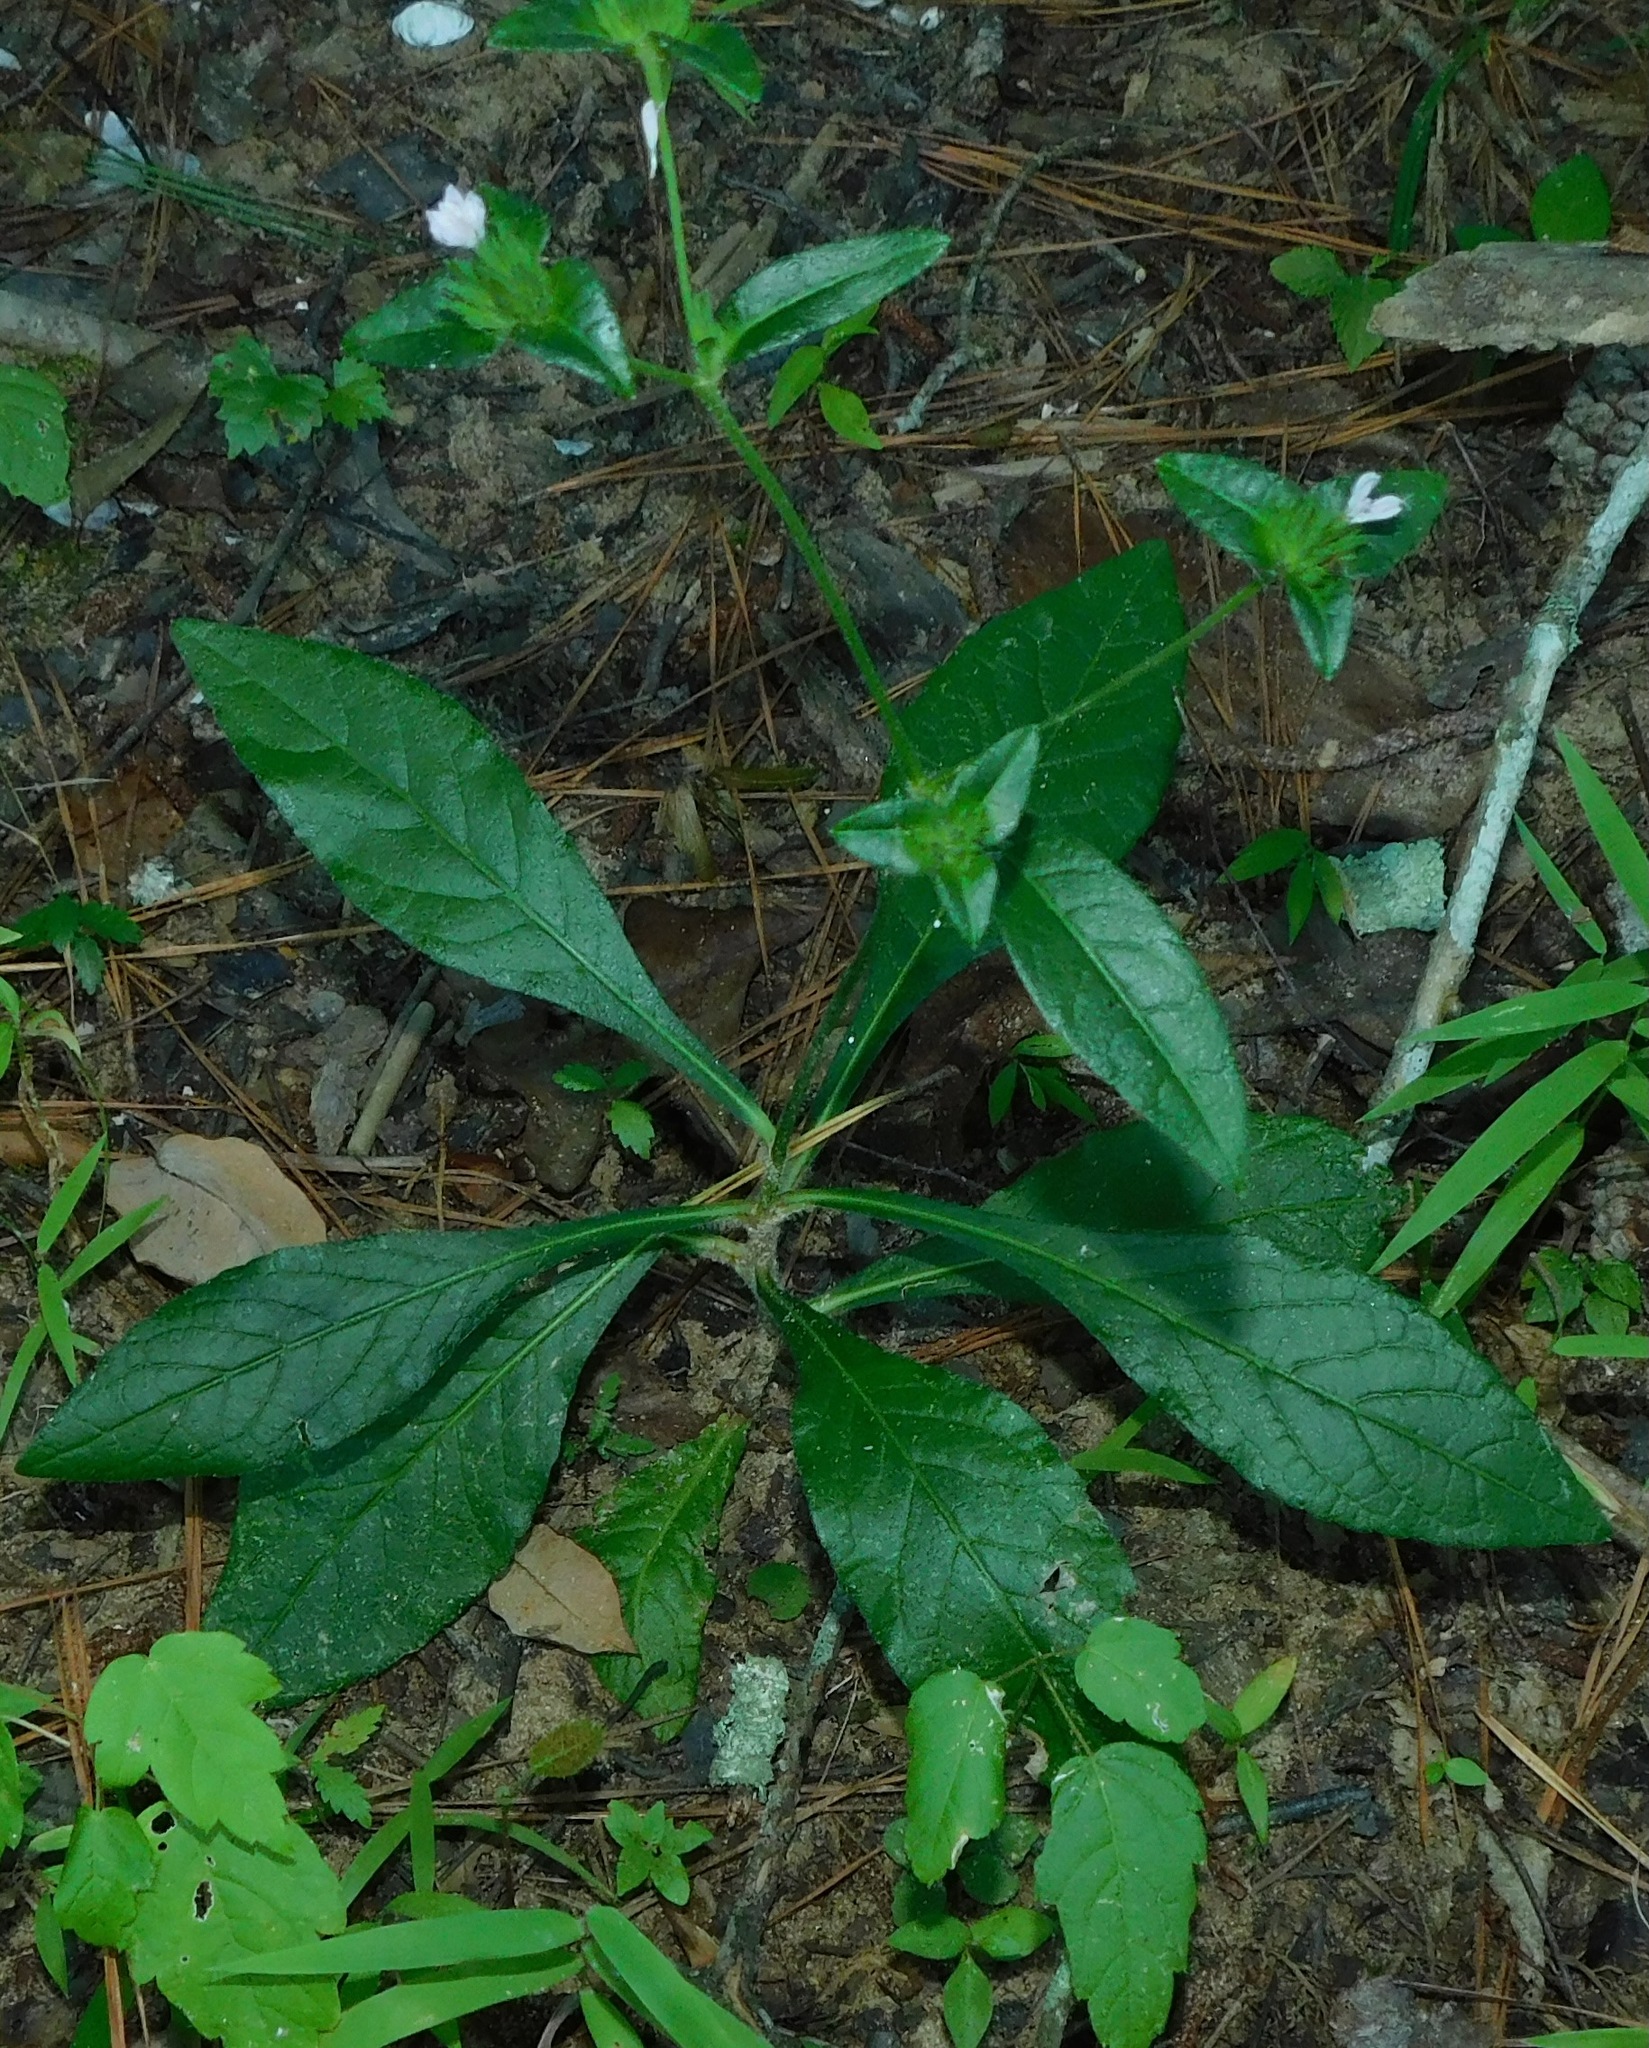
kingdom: Plantae
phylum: Tracheophyta
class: Magnoliopsida
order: Asterales
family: Asteraceae
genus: Elephantopus
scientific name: Elephantopus carolinianus
